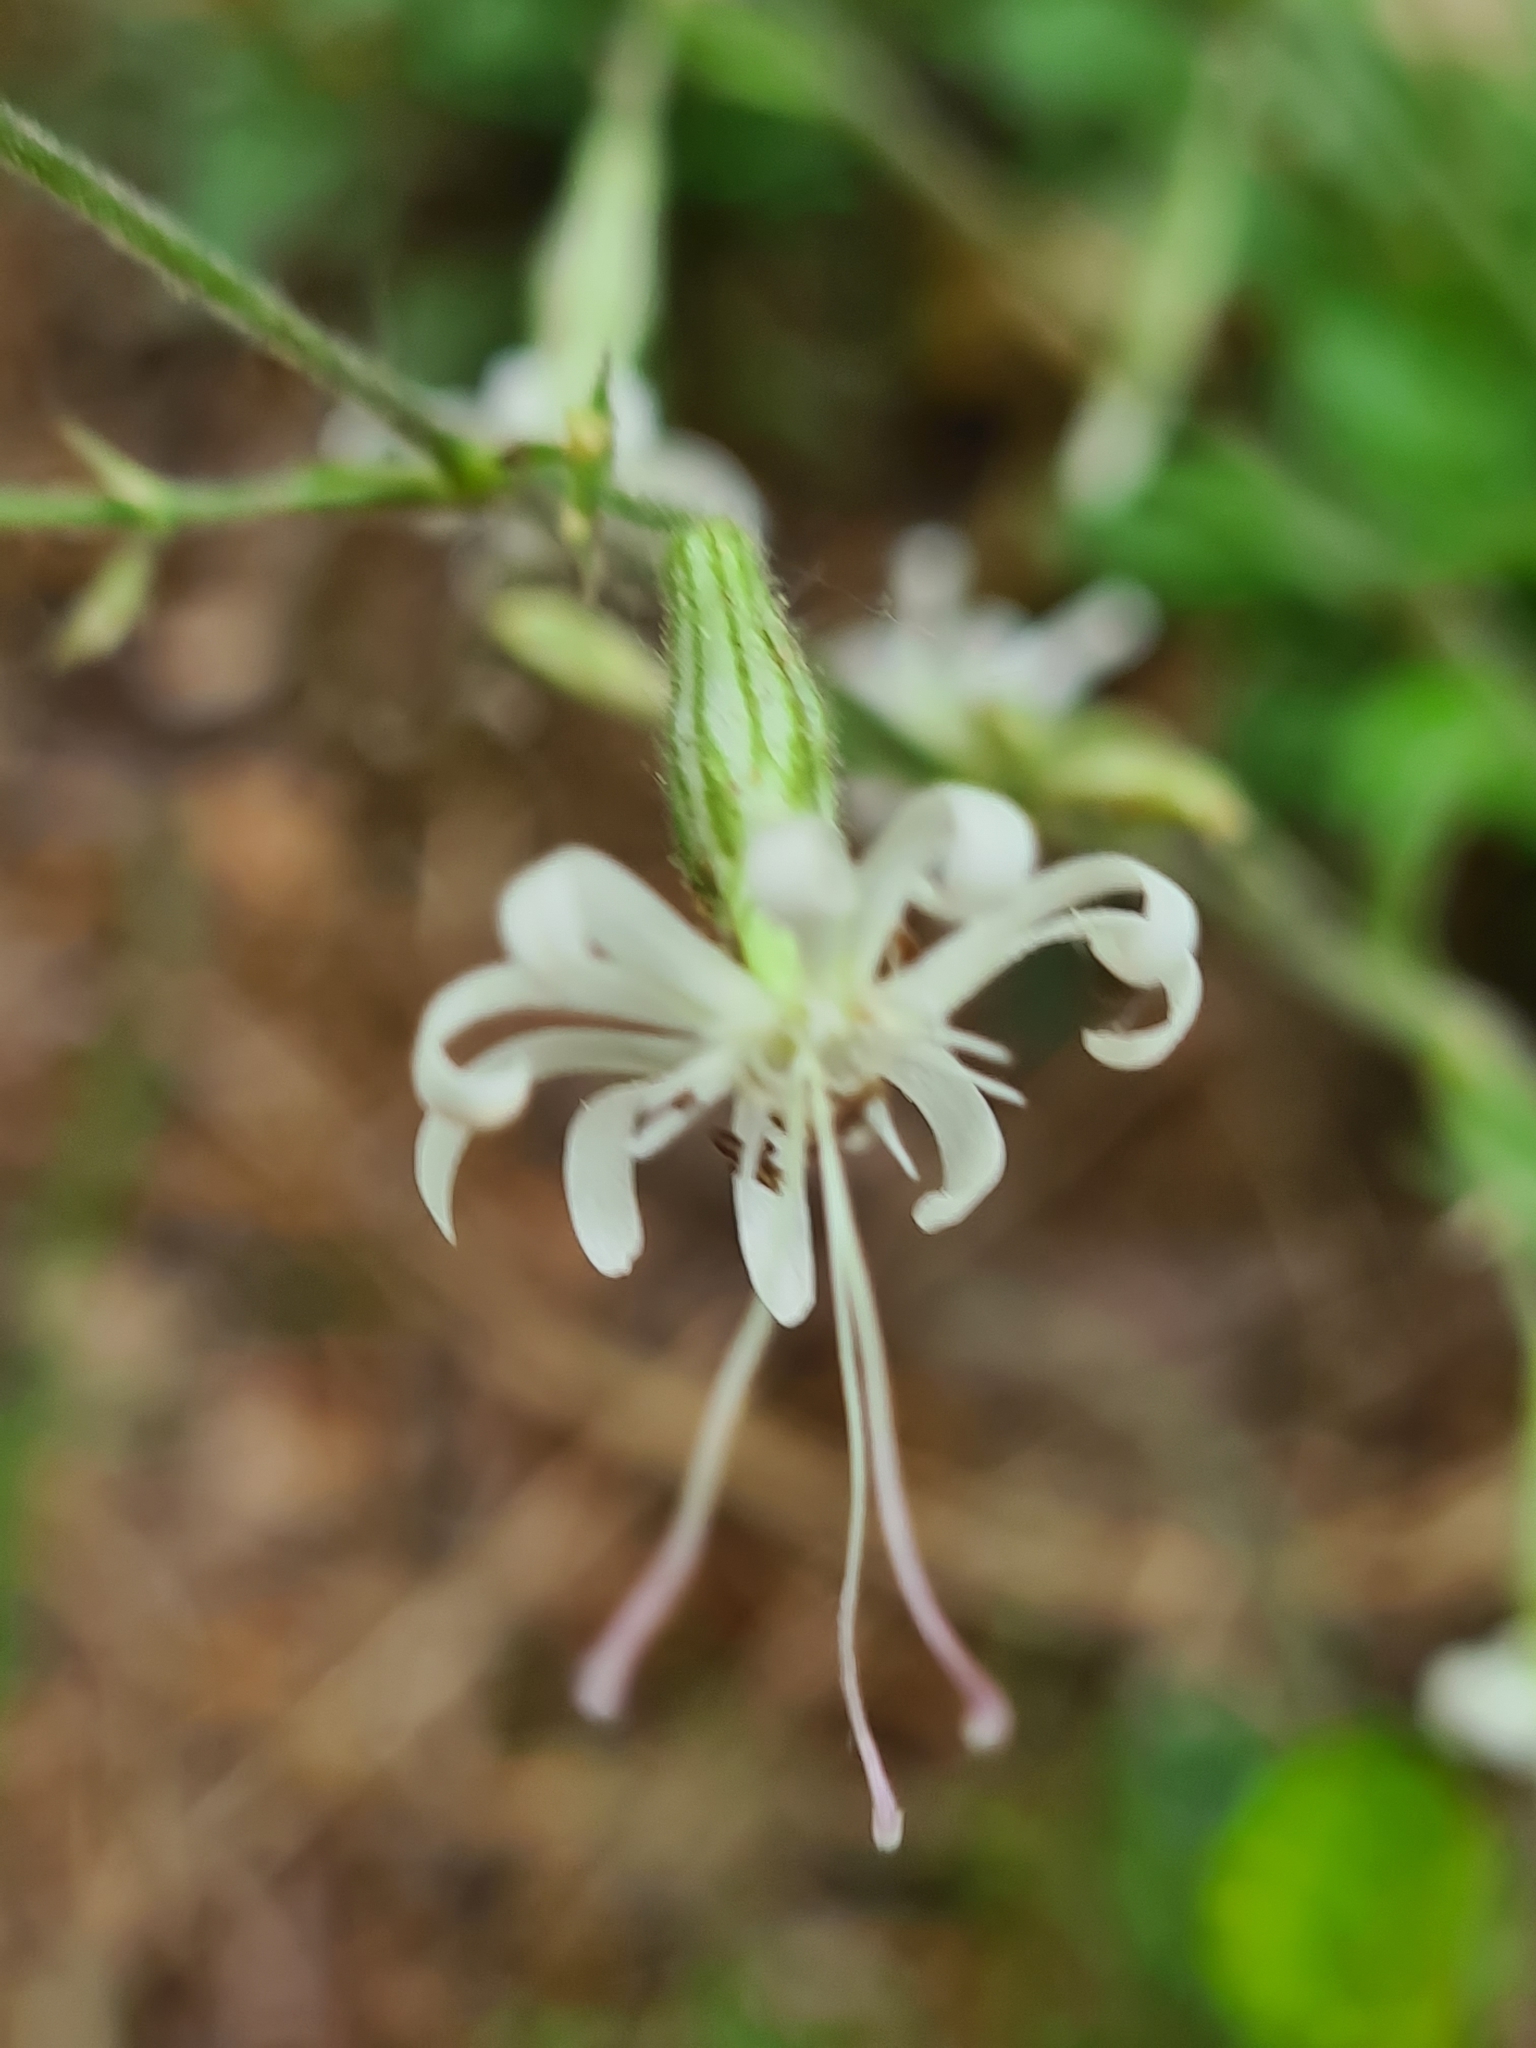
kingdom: Plantae
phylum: Tracheophyta
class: Magnoliopsida
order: Caryophyllales
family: Caryophyllaceae
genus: Silene
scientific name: Silene nutans
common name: Nottingham catchfly
